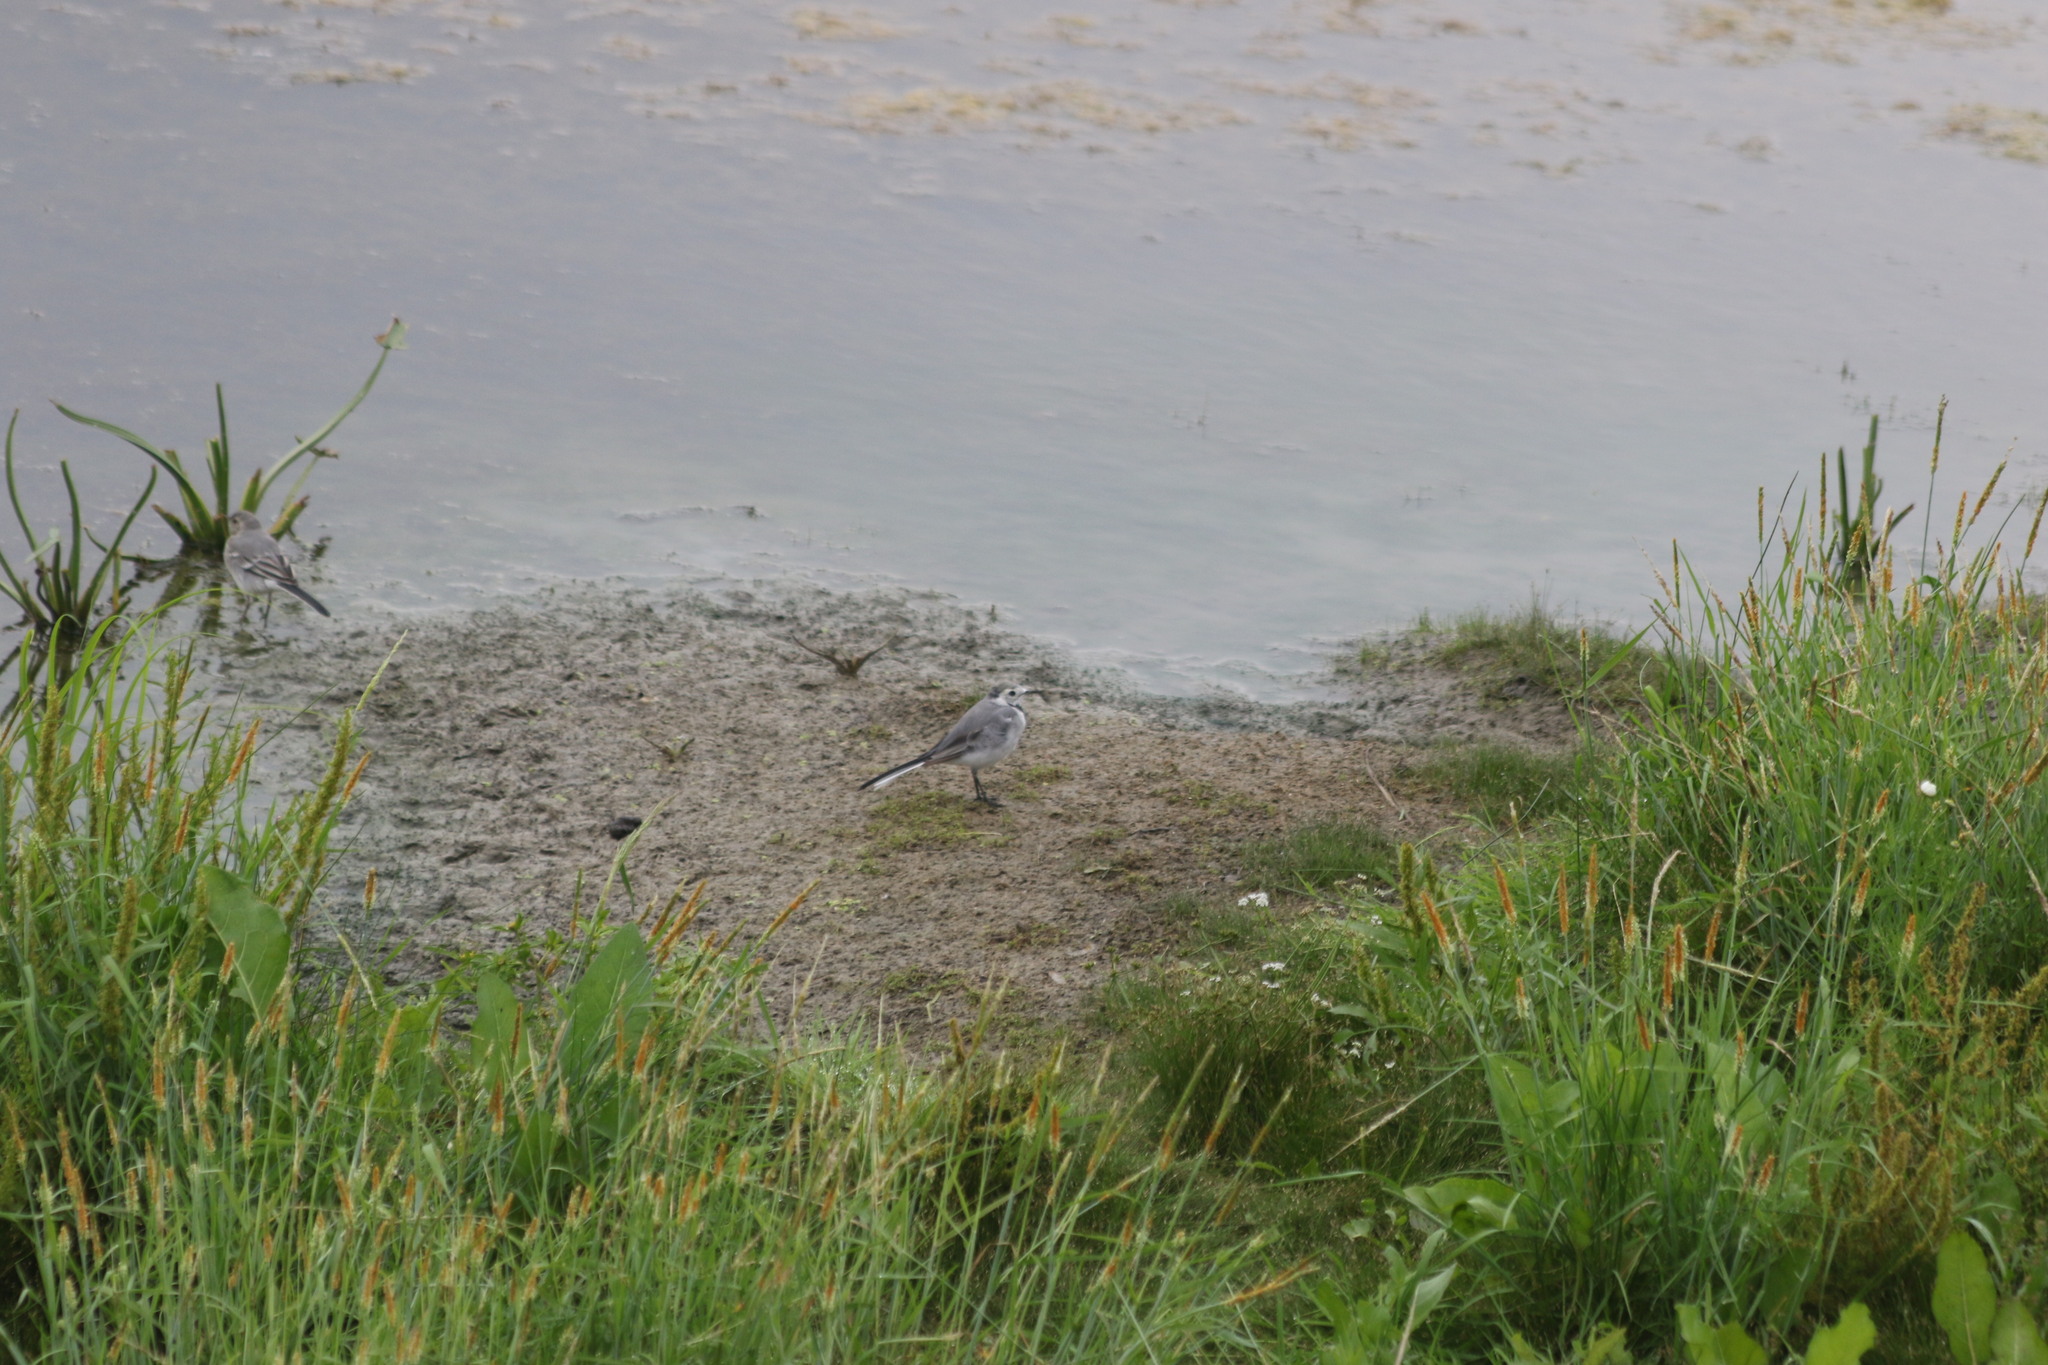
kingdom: Animalia
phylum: Chordata
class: Aves
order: Passeriformes
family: Motacillidae
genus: Motacilla
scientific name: Motacilla alba
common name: White wagtail
